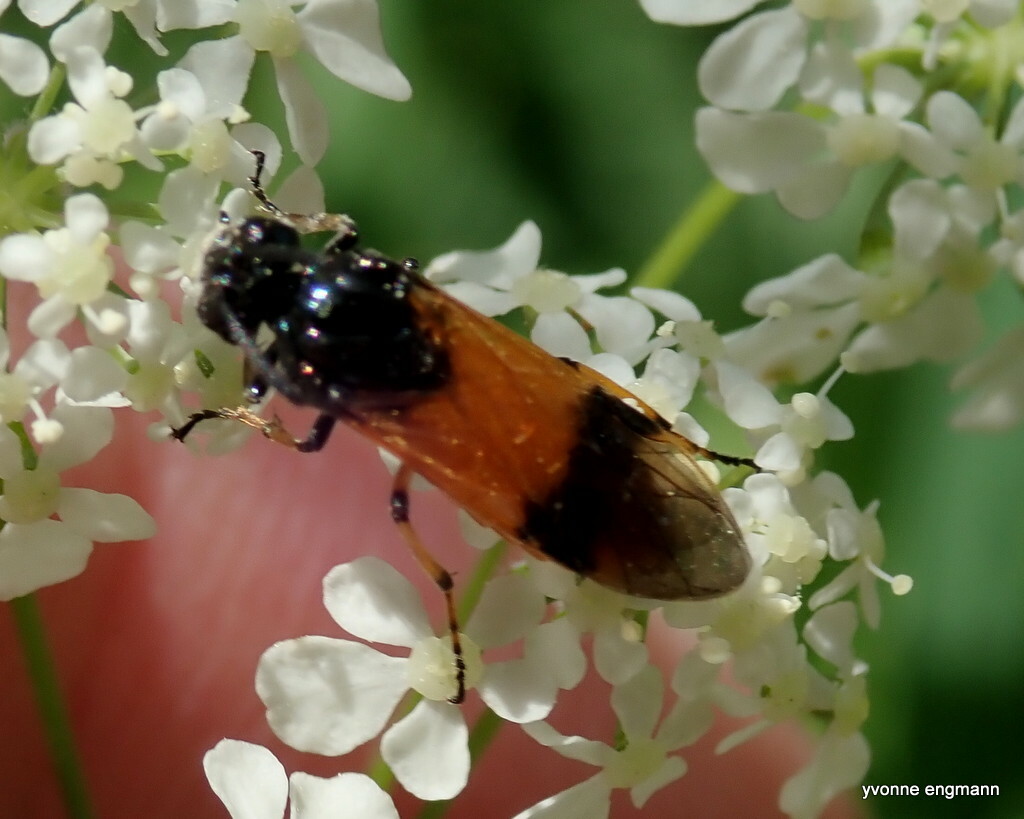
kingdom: Animalia
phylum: Arthropoda
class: Insecta
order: Hymenoptera
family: Argidae
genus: Arge
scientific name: Arge cyanocrocea
